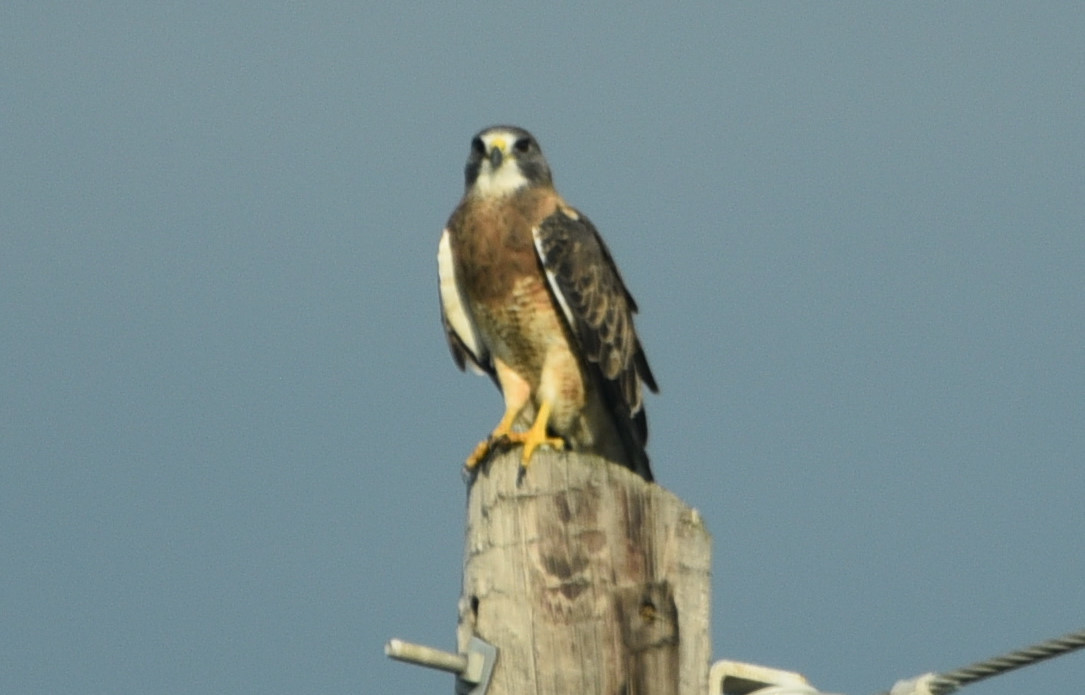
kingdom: Animalia
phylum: Chordata
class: Aves
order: Accipitriformes
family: Accipitridae
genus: Buteo
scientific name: Buteo swainsoni
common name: Swainson's hawk
